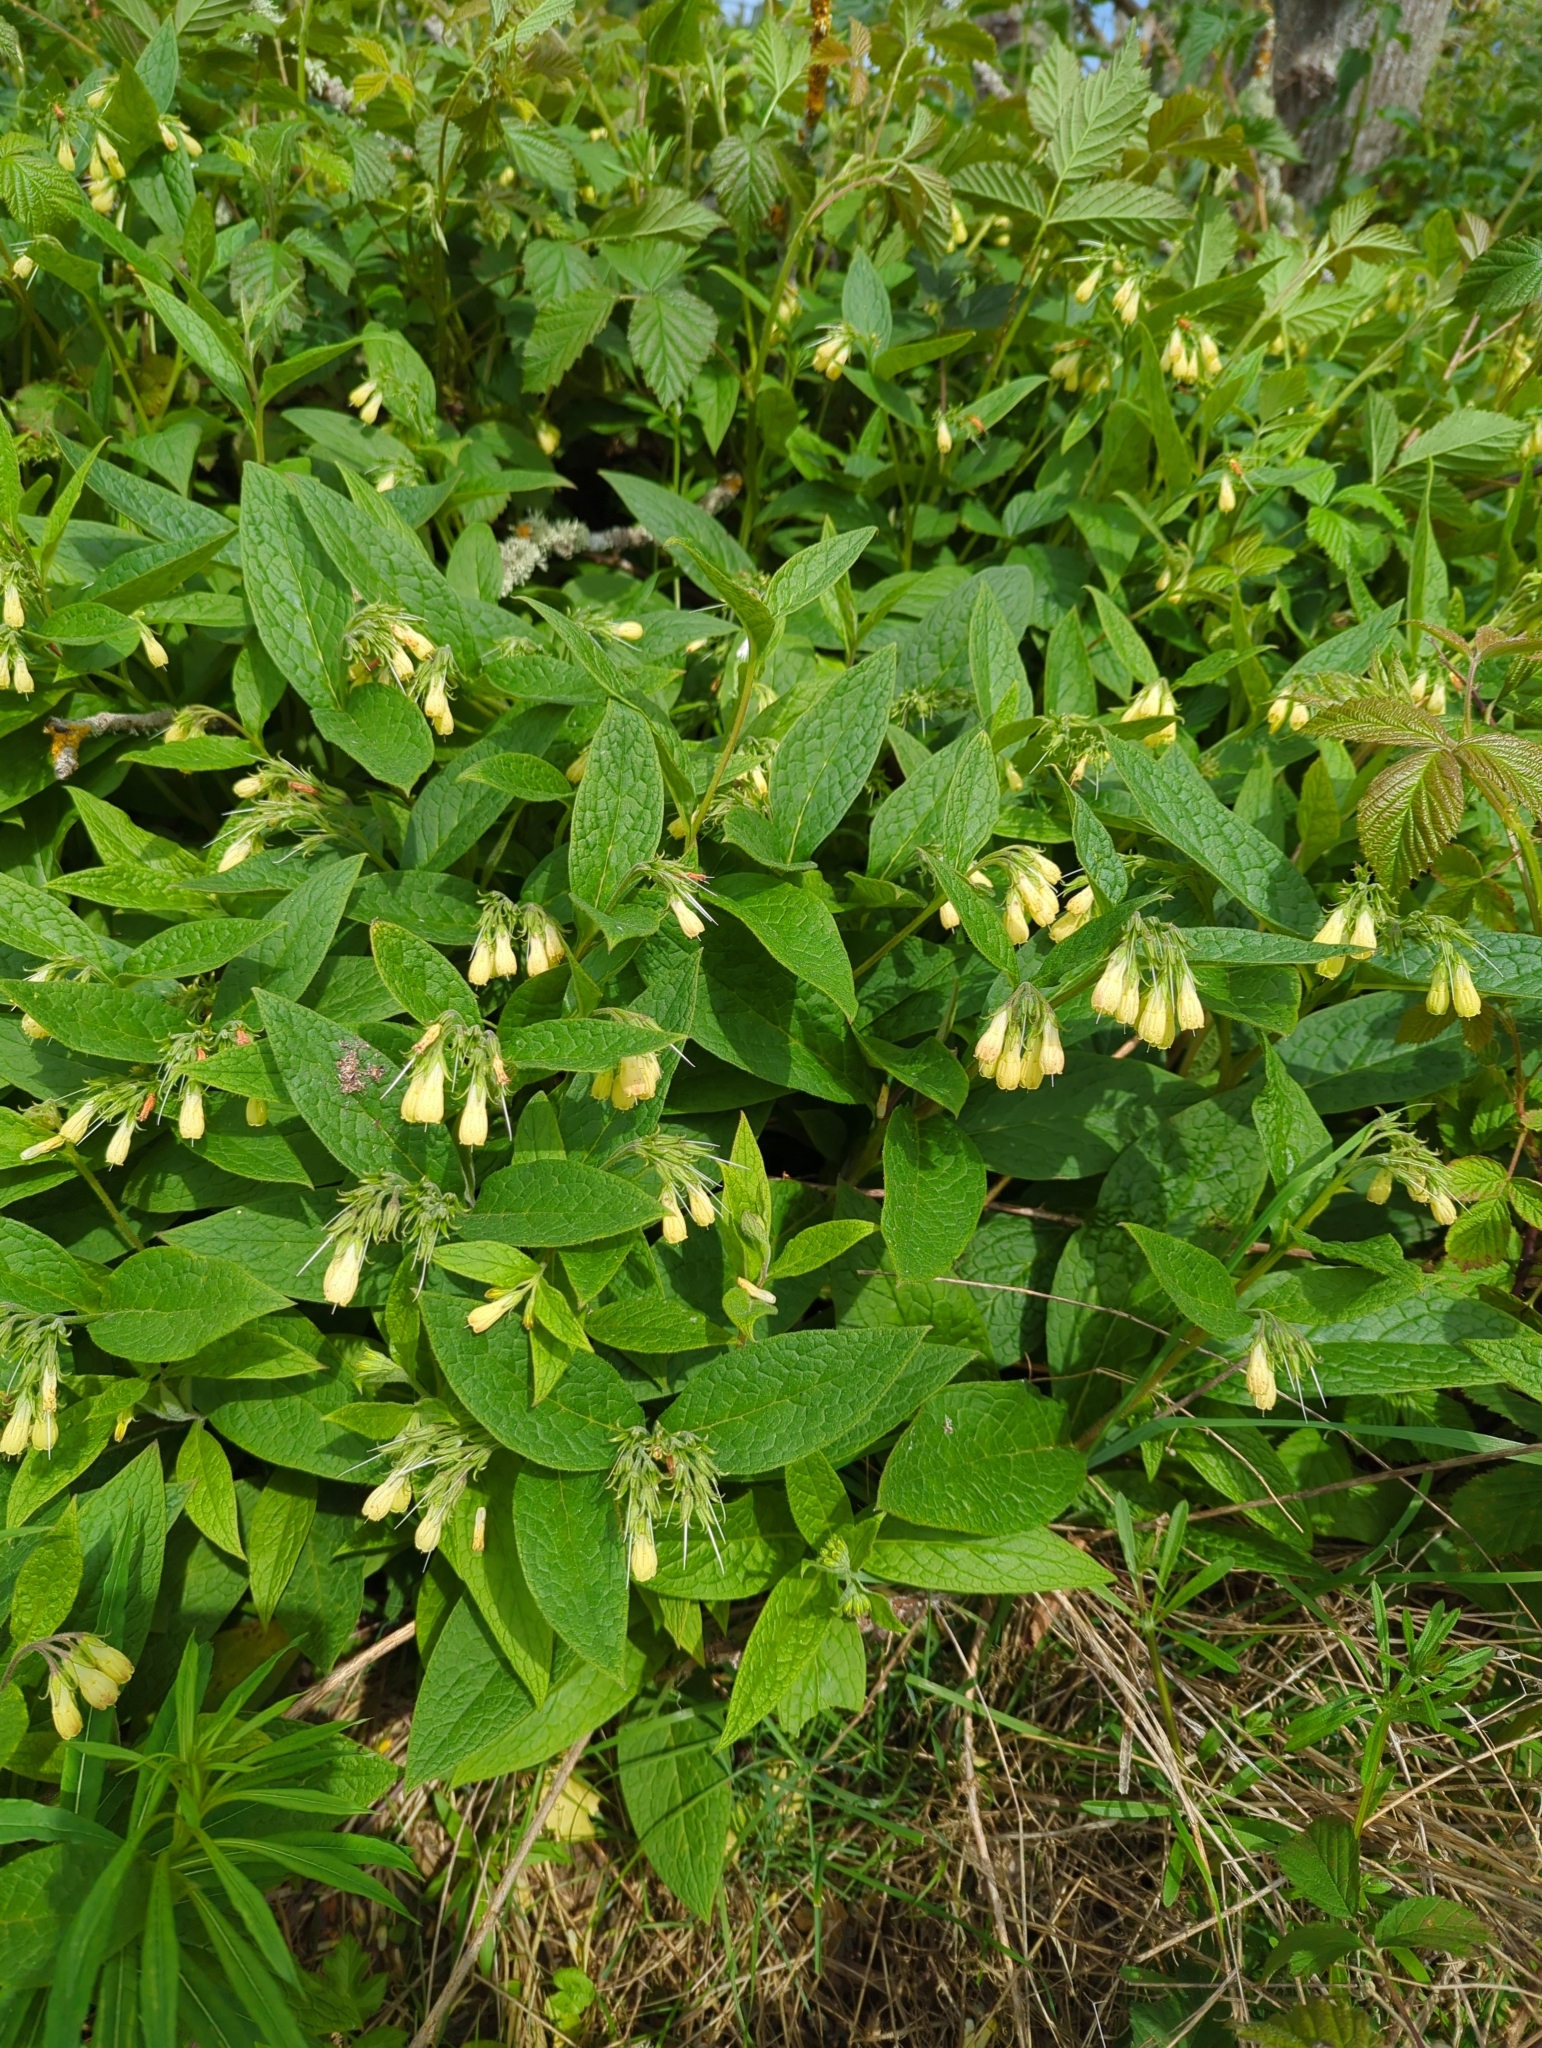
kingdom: Plantae
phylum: Tracheophyta
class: Magnoliopsida
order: Boraginales
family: Boraginaceae
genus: Symphytum
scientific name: Symphytum tuberosum
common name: Tuberous comfrey
